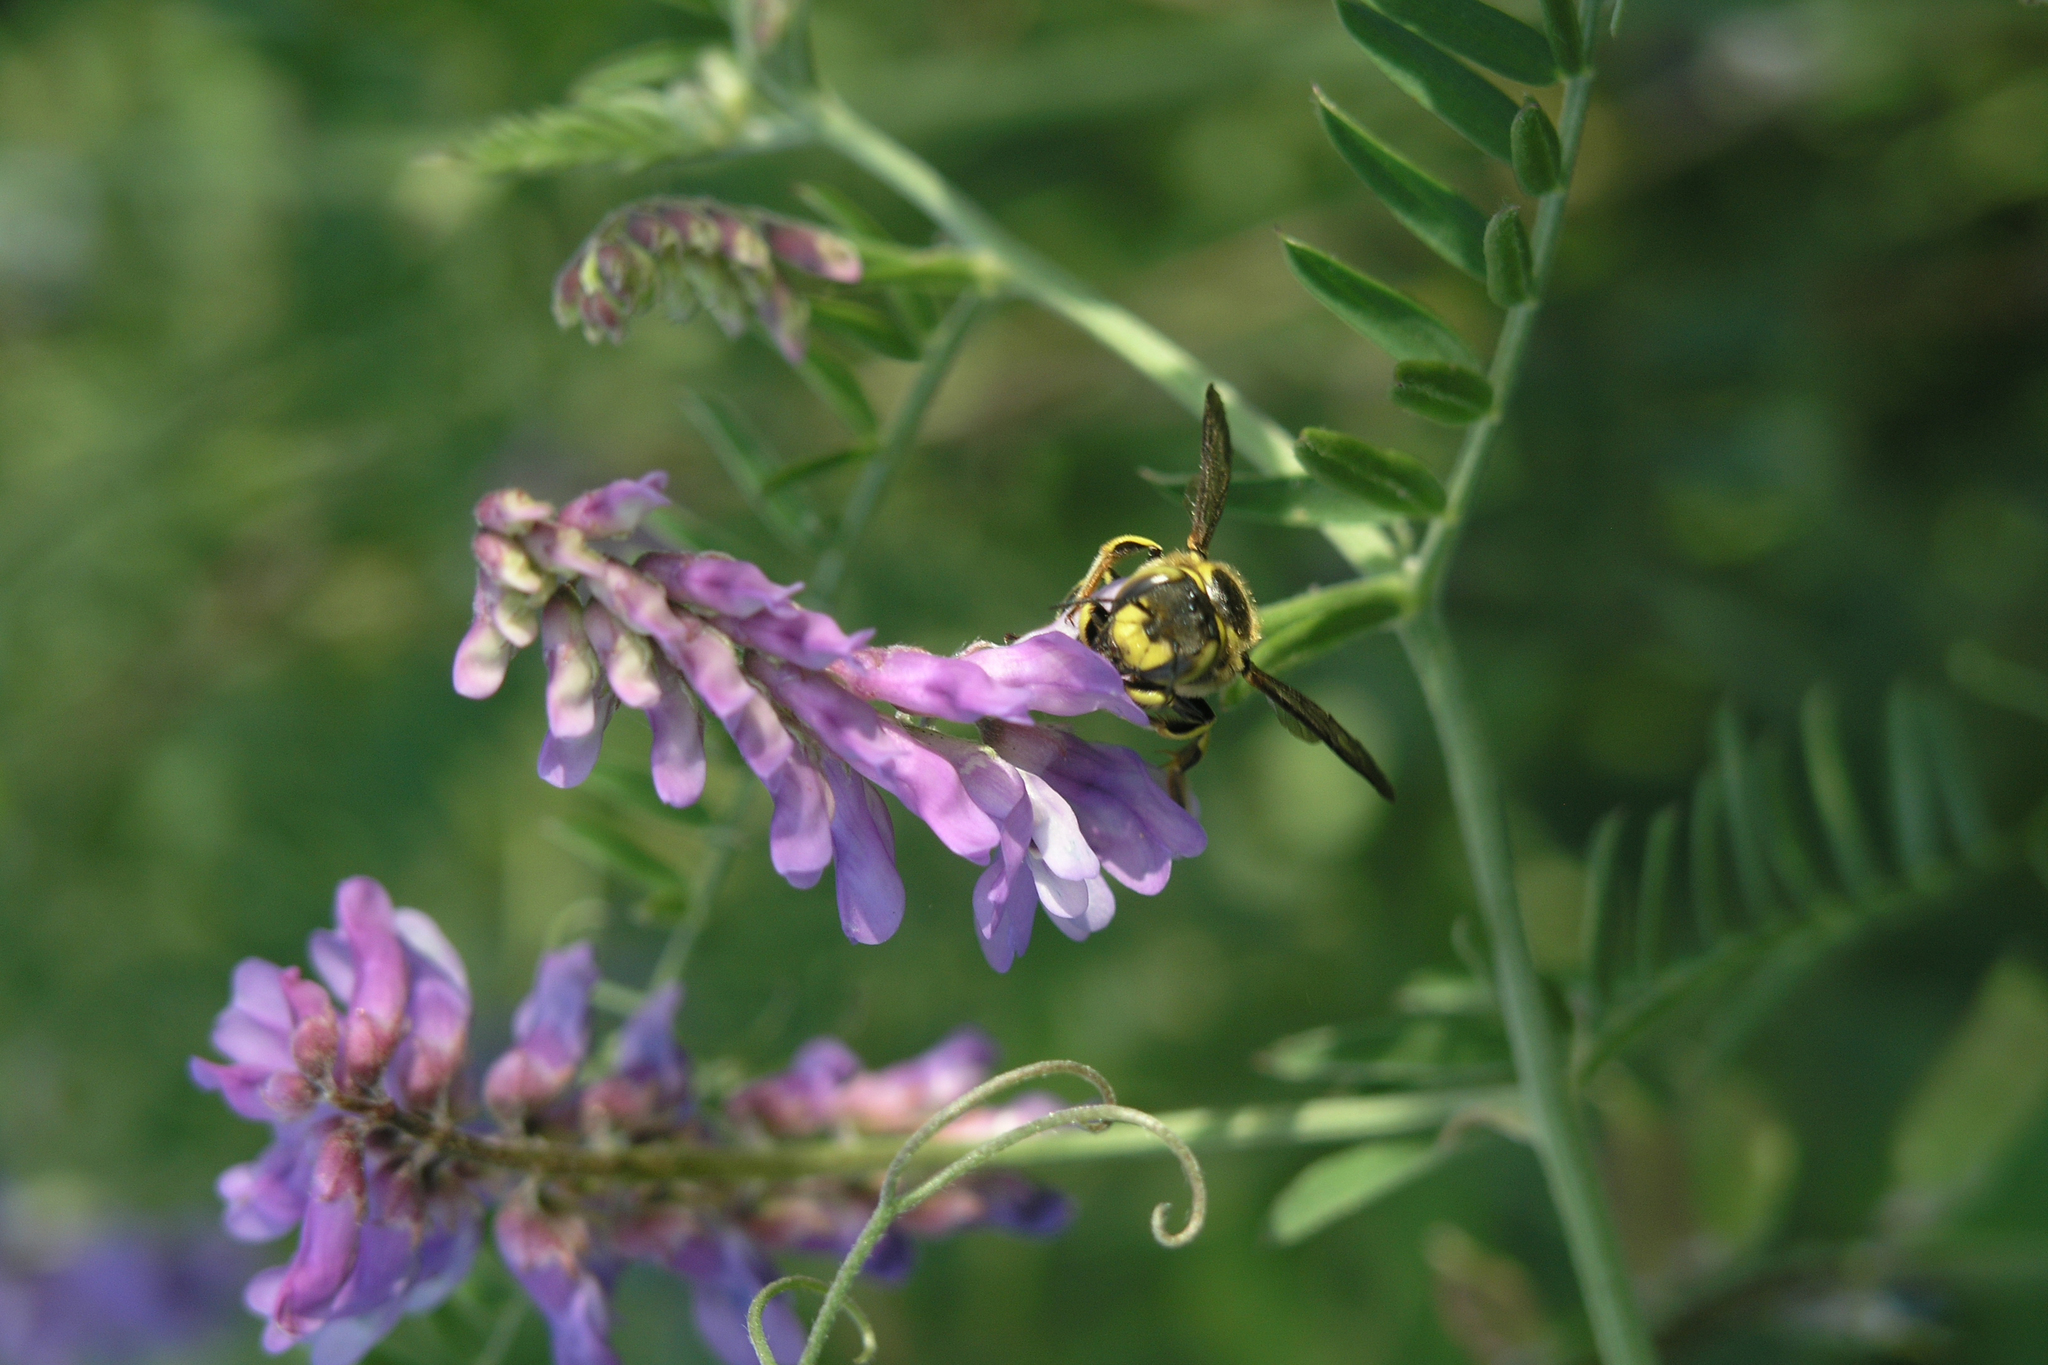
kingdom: Plantae
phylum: Tracheophyta
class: Magnoliopsida
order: Fabales
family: Fabaceae
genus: Vicia
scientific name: Vicia cracca
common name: Bird vetch
